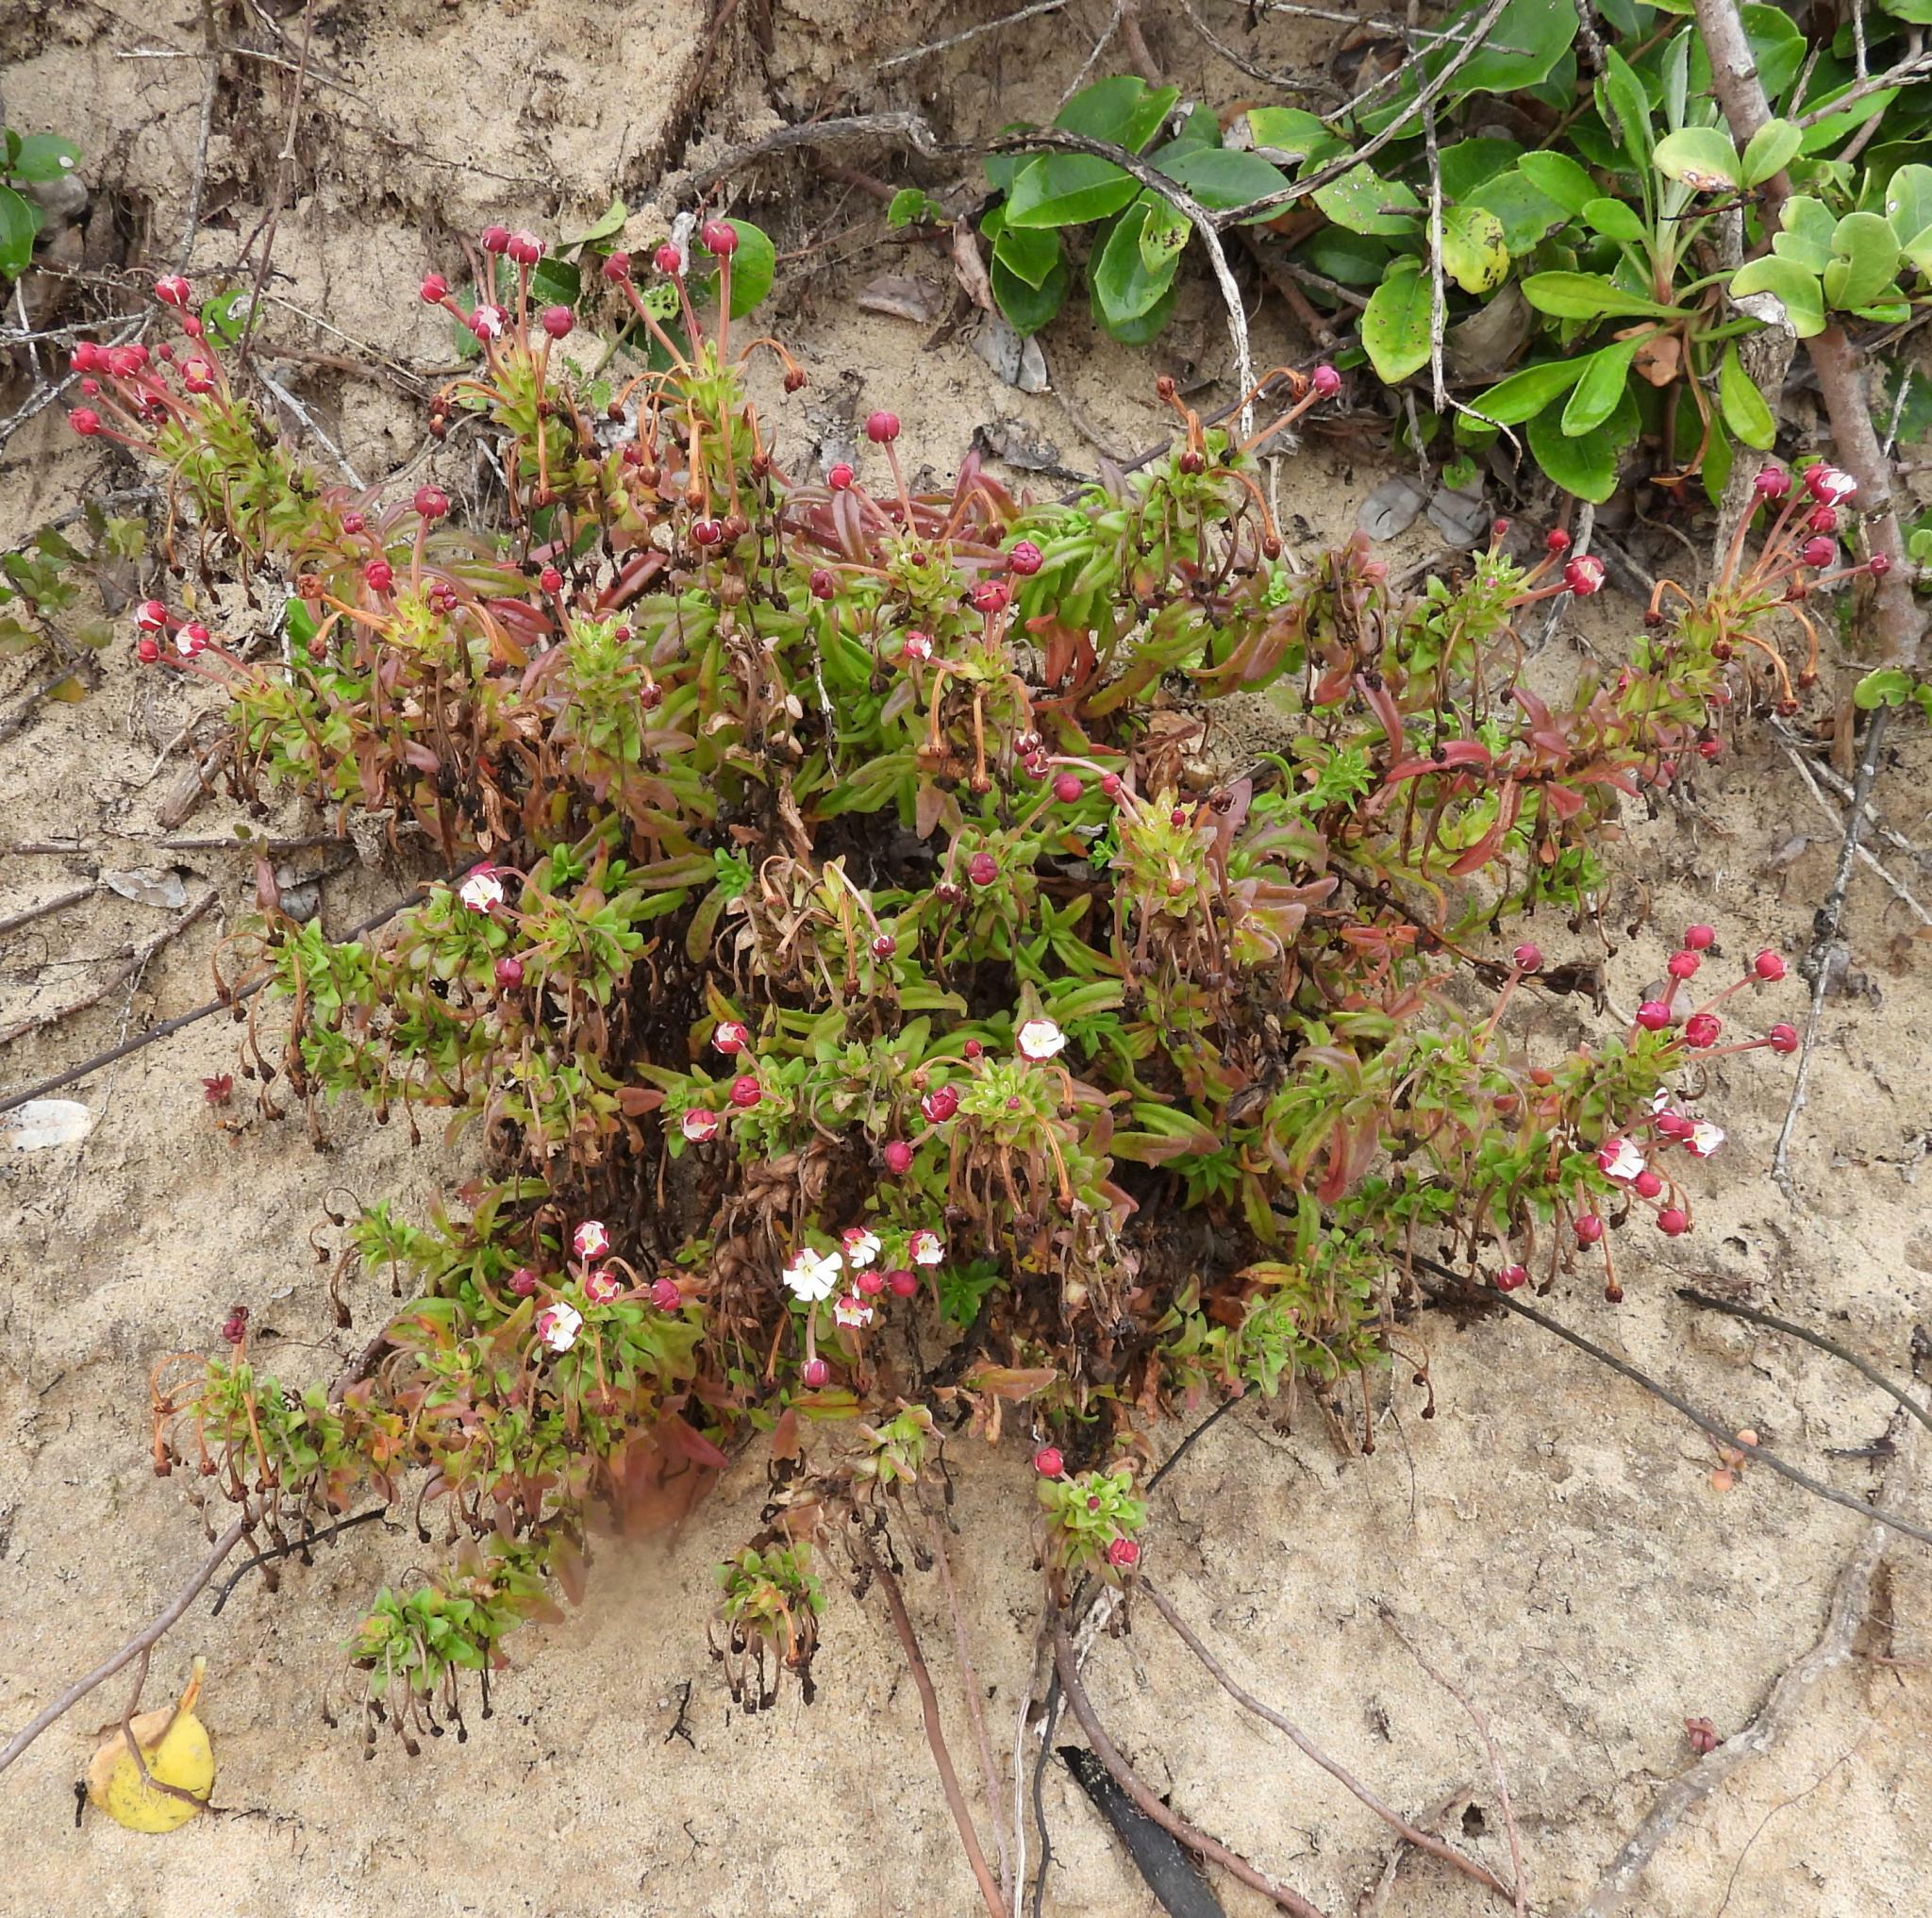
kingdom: Plantae
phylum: Tracheophyta
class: Magnoliopsida
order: Lamiales
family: Scrophulariaceae
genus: Zaluzianskya
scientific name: Zaluzianskya maritima
